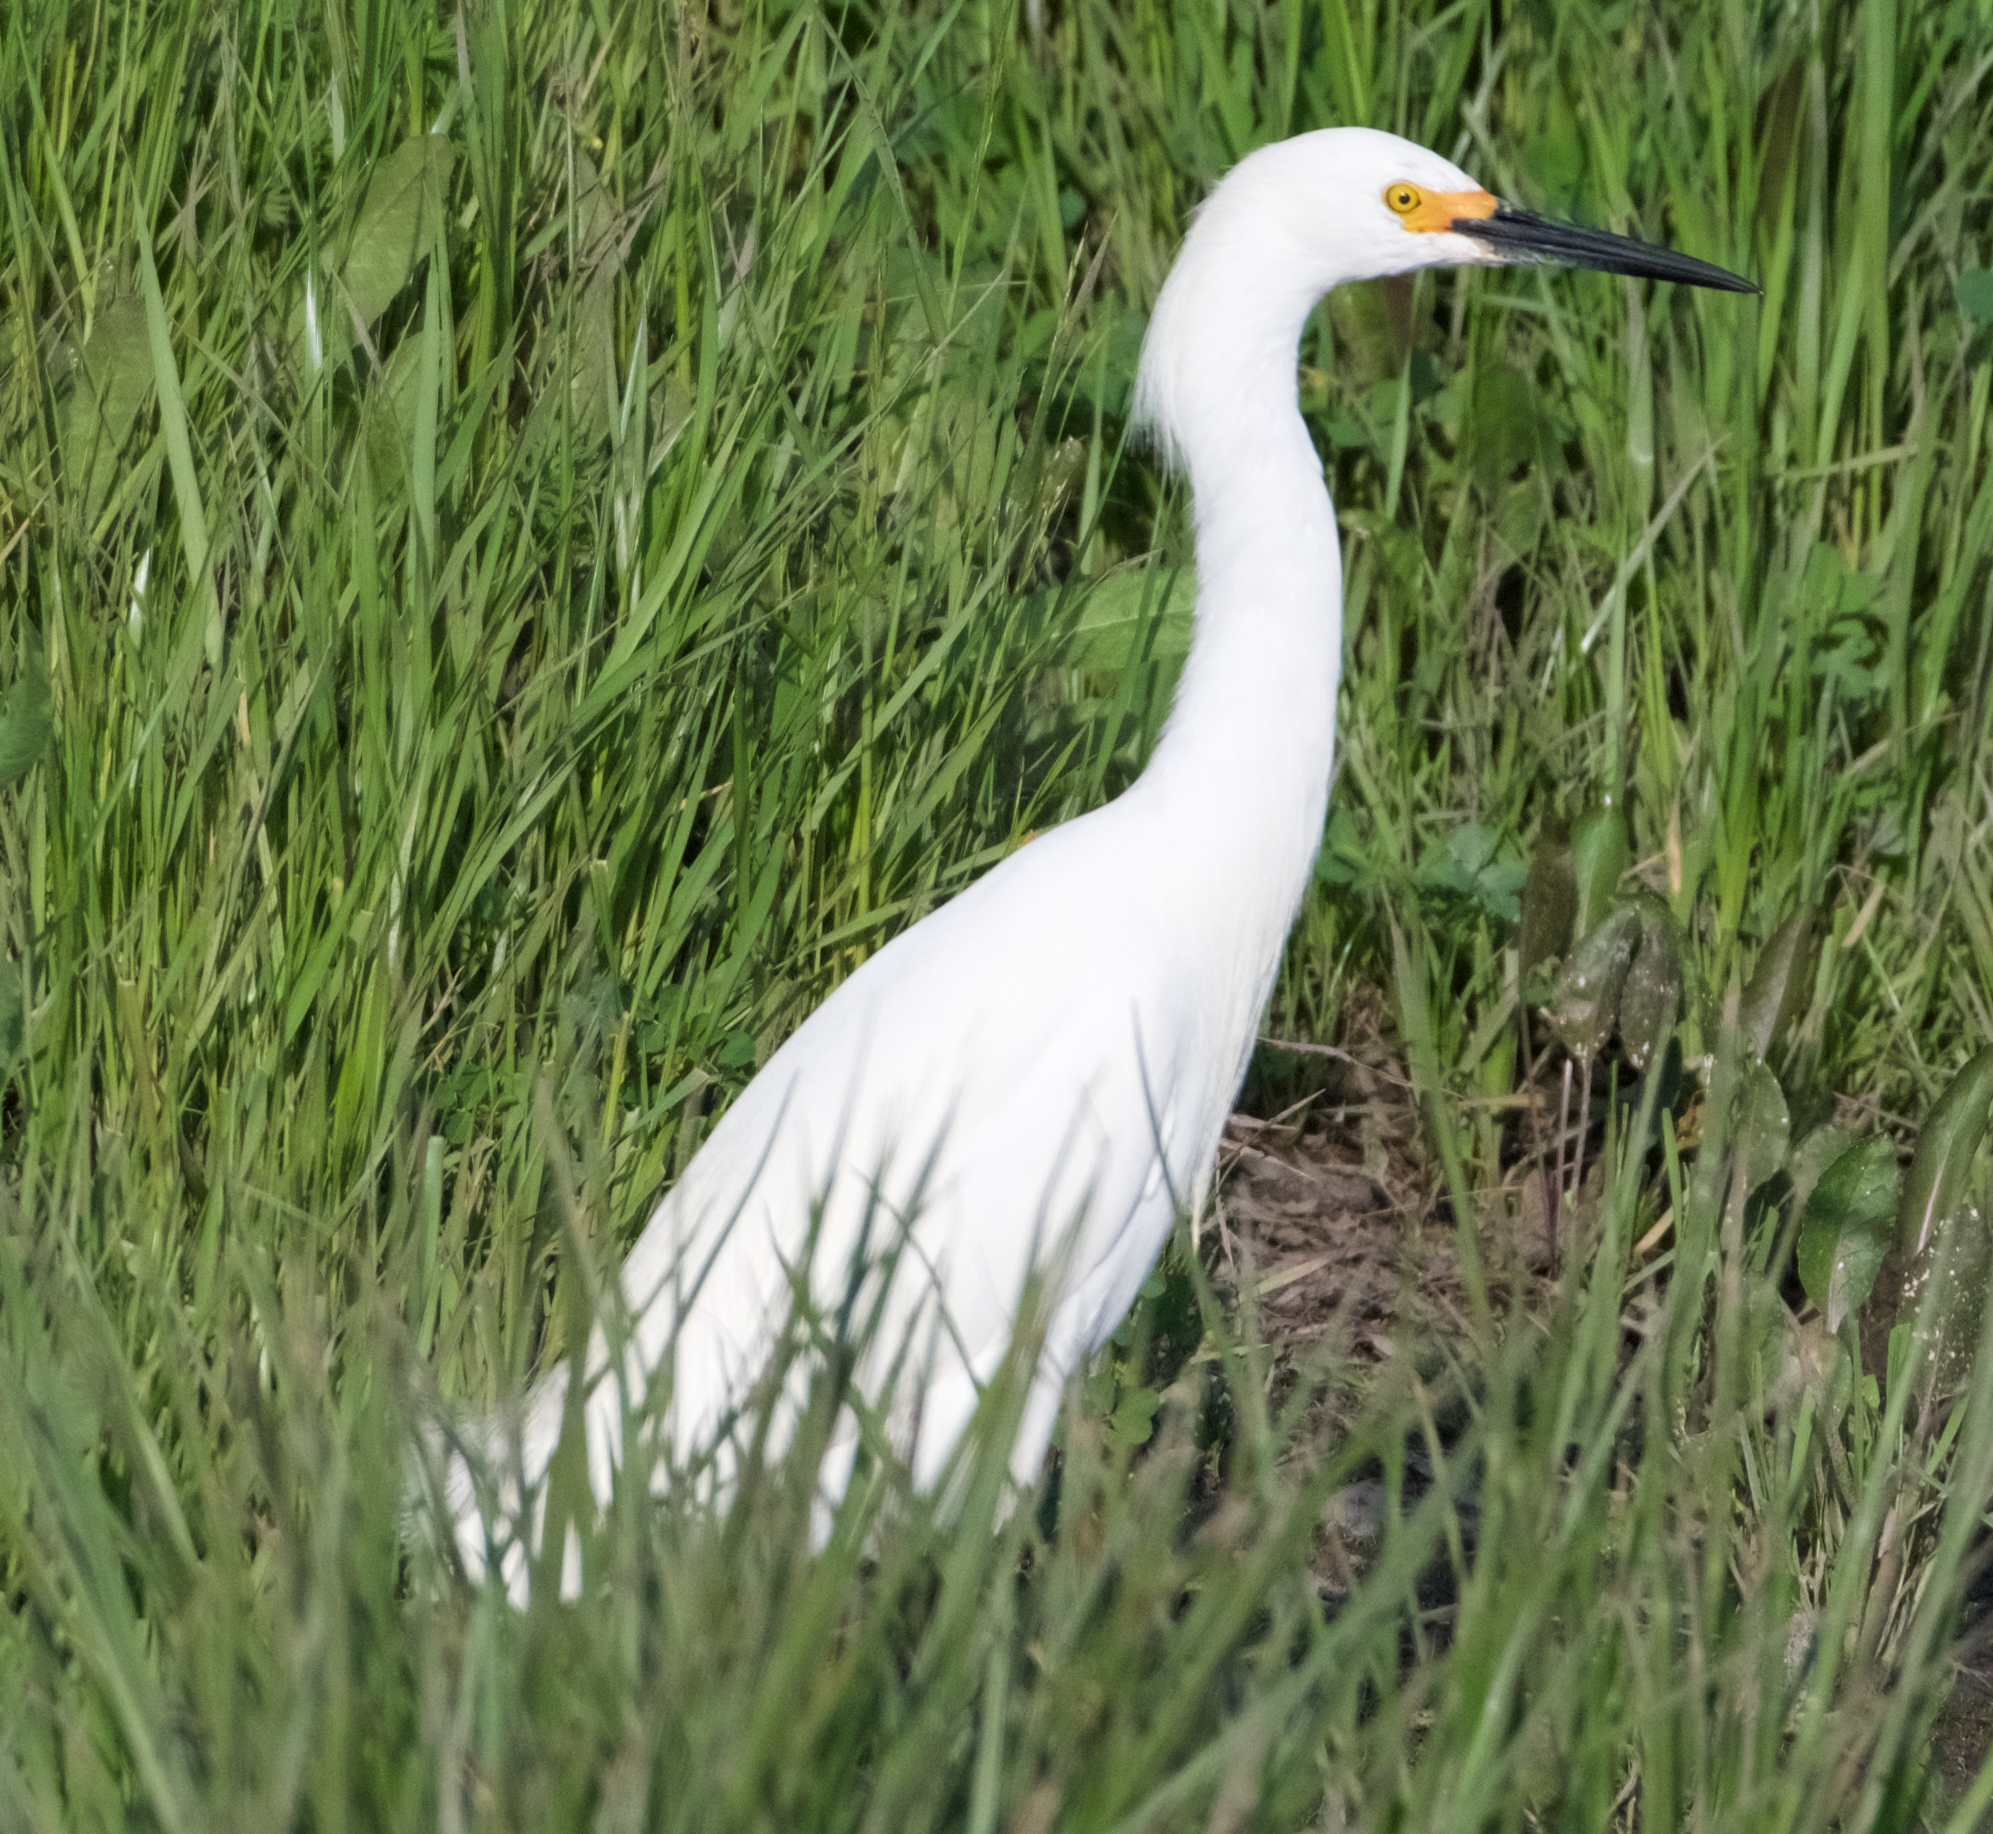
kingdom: Animalia
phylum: Chordata
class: Aves
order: Pelecaniformes
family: Ardeidae
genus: Egretta
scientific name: Egretta thula
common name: Snowy egret
